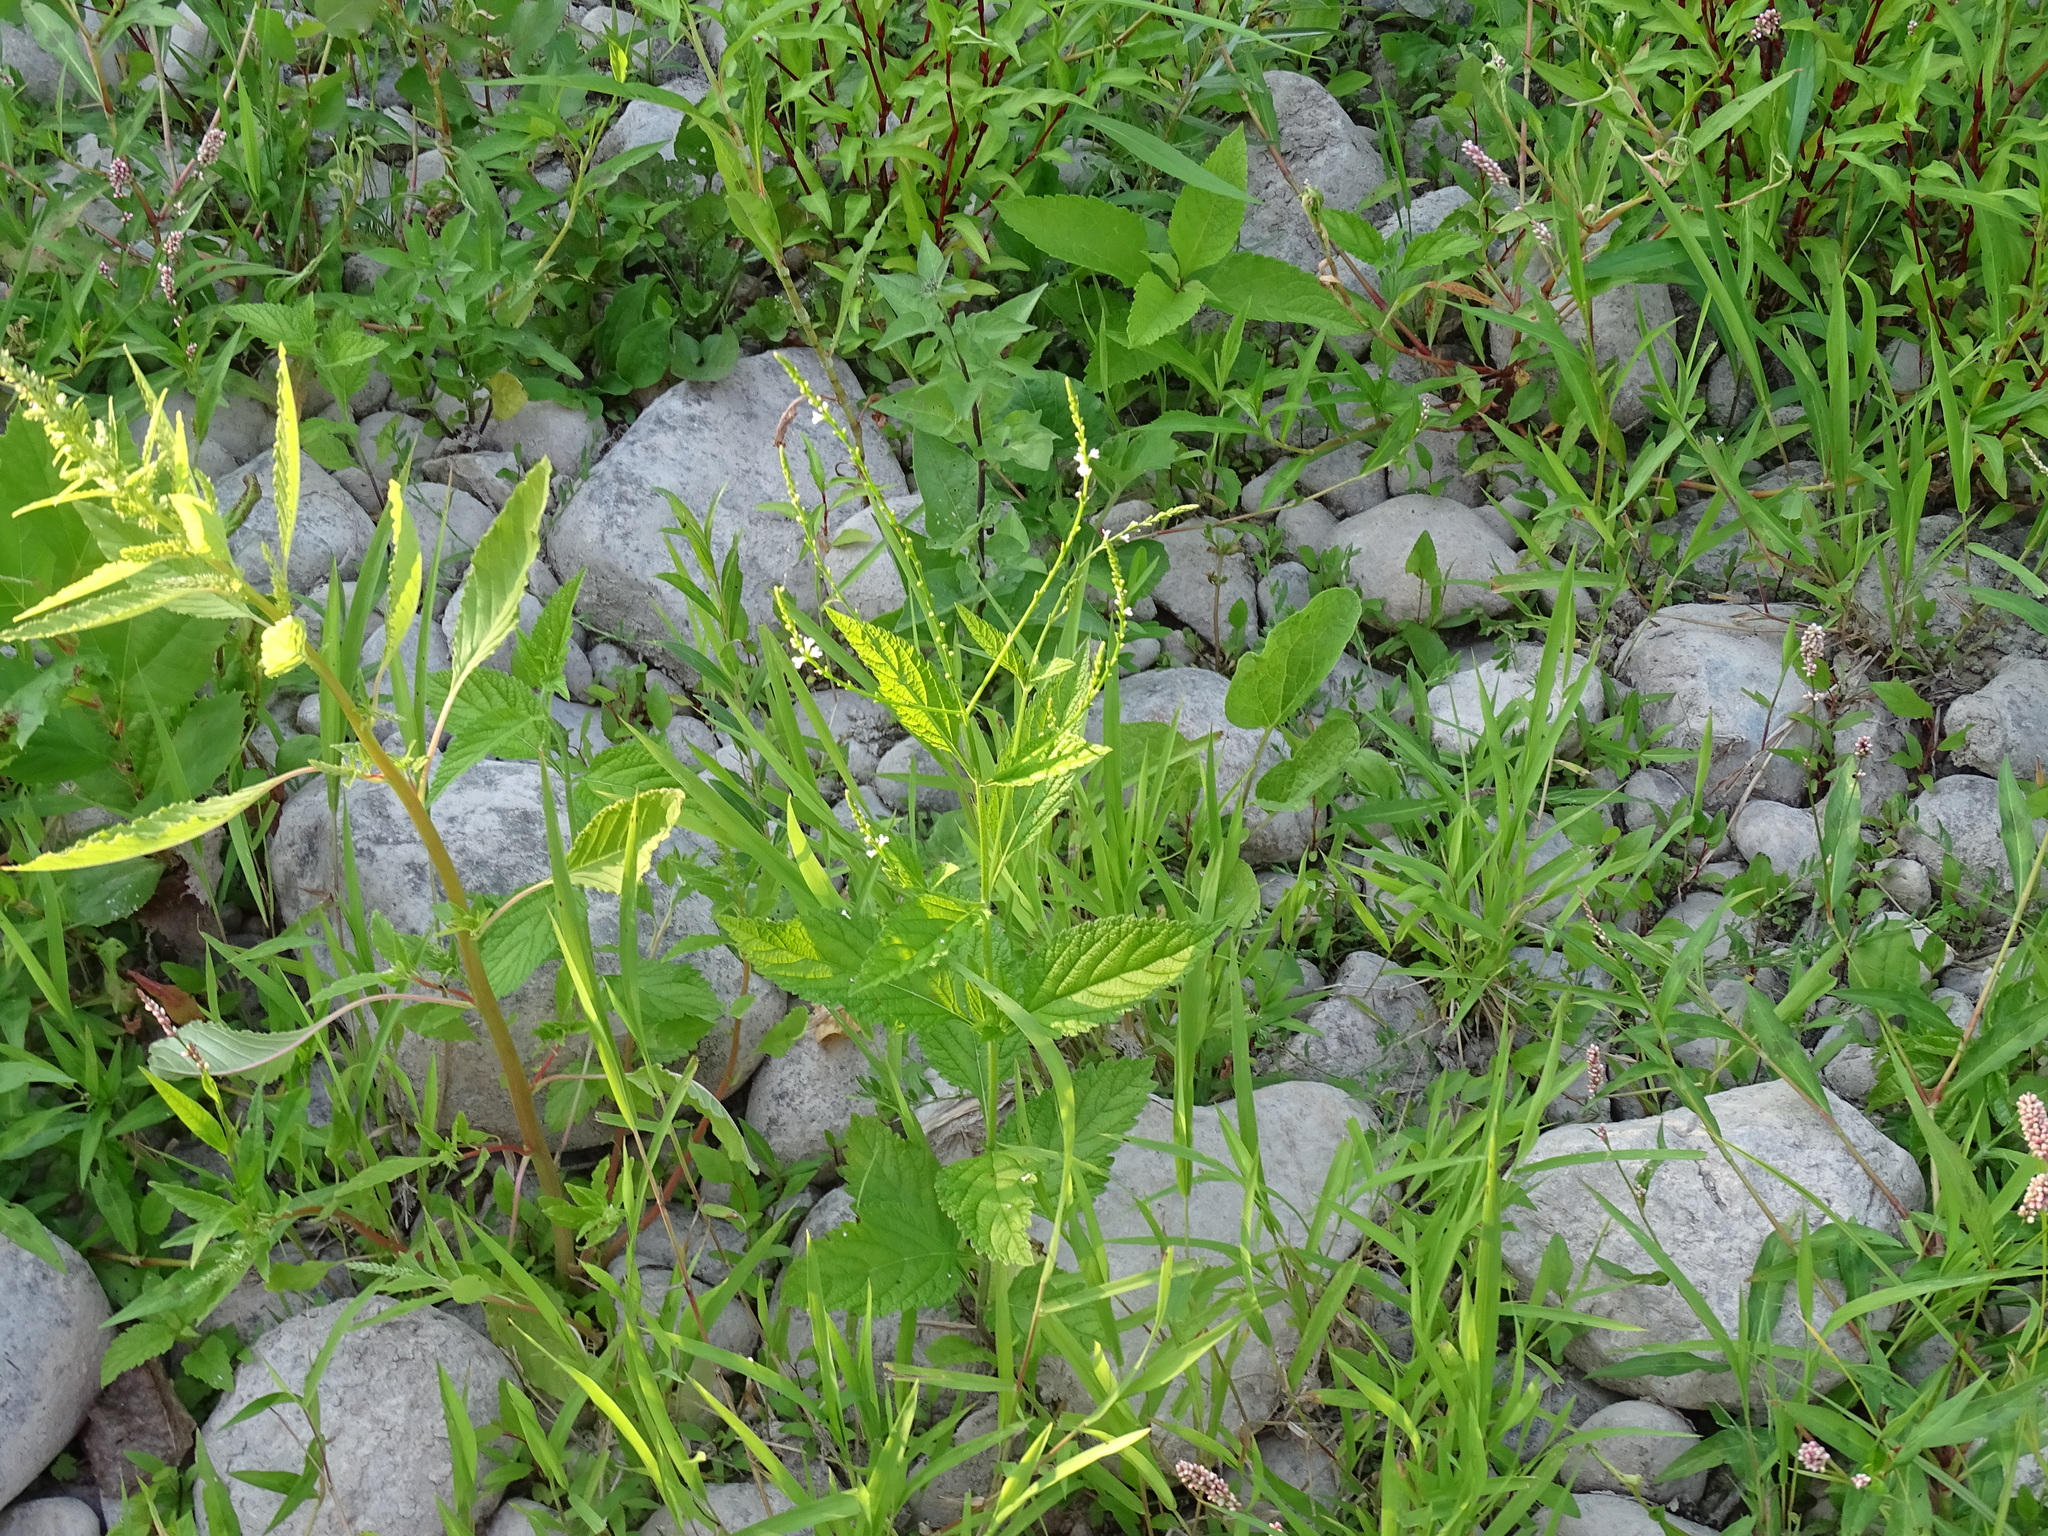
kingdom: Plantae
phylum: Tracheophyta
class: Magnoliopsida
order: Lamiales
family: Verbenaceae
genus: Verbena
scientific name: Verbena urticifolia
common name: Nettle-leaved vervain
